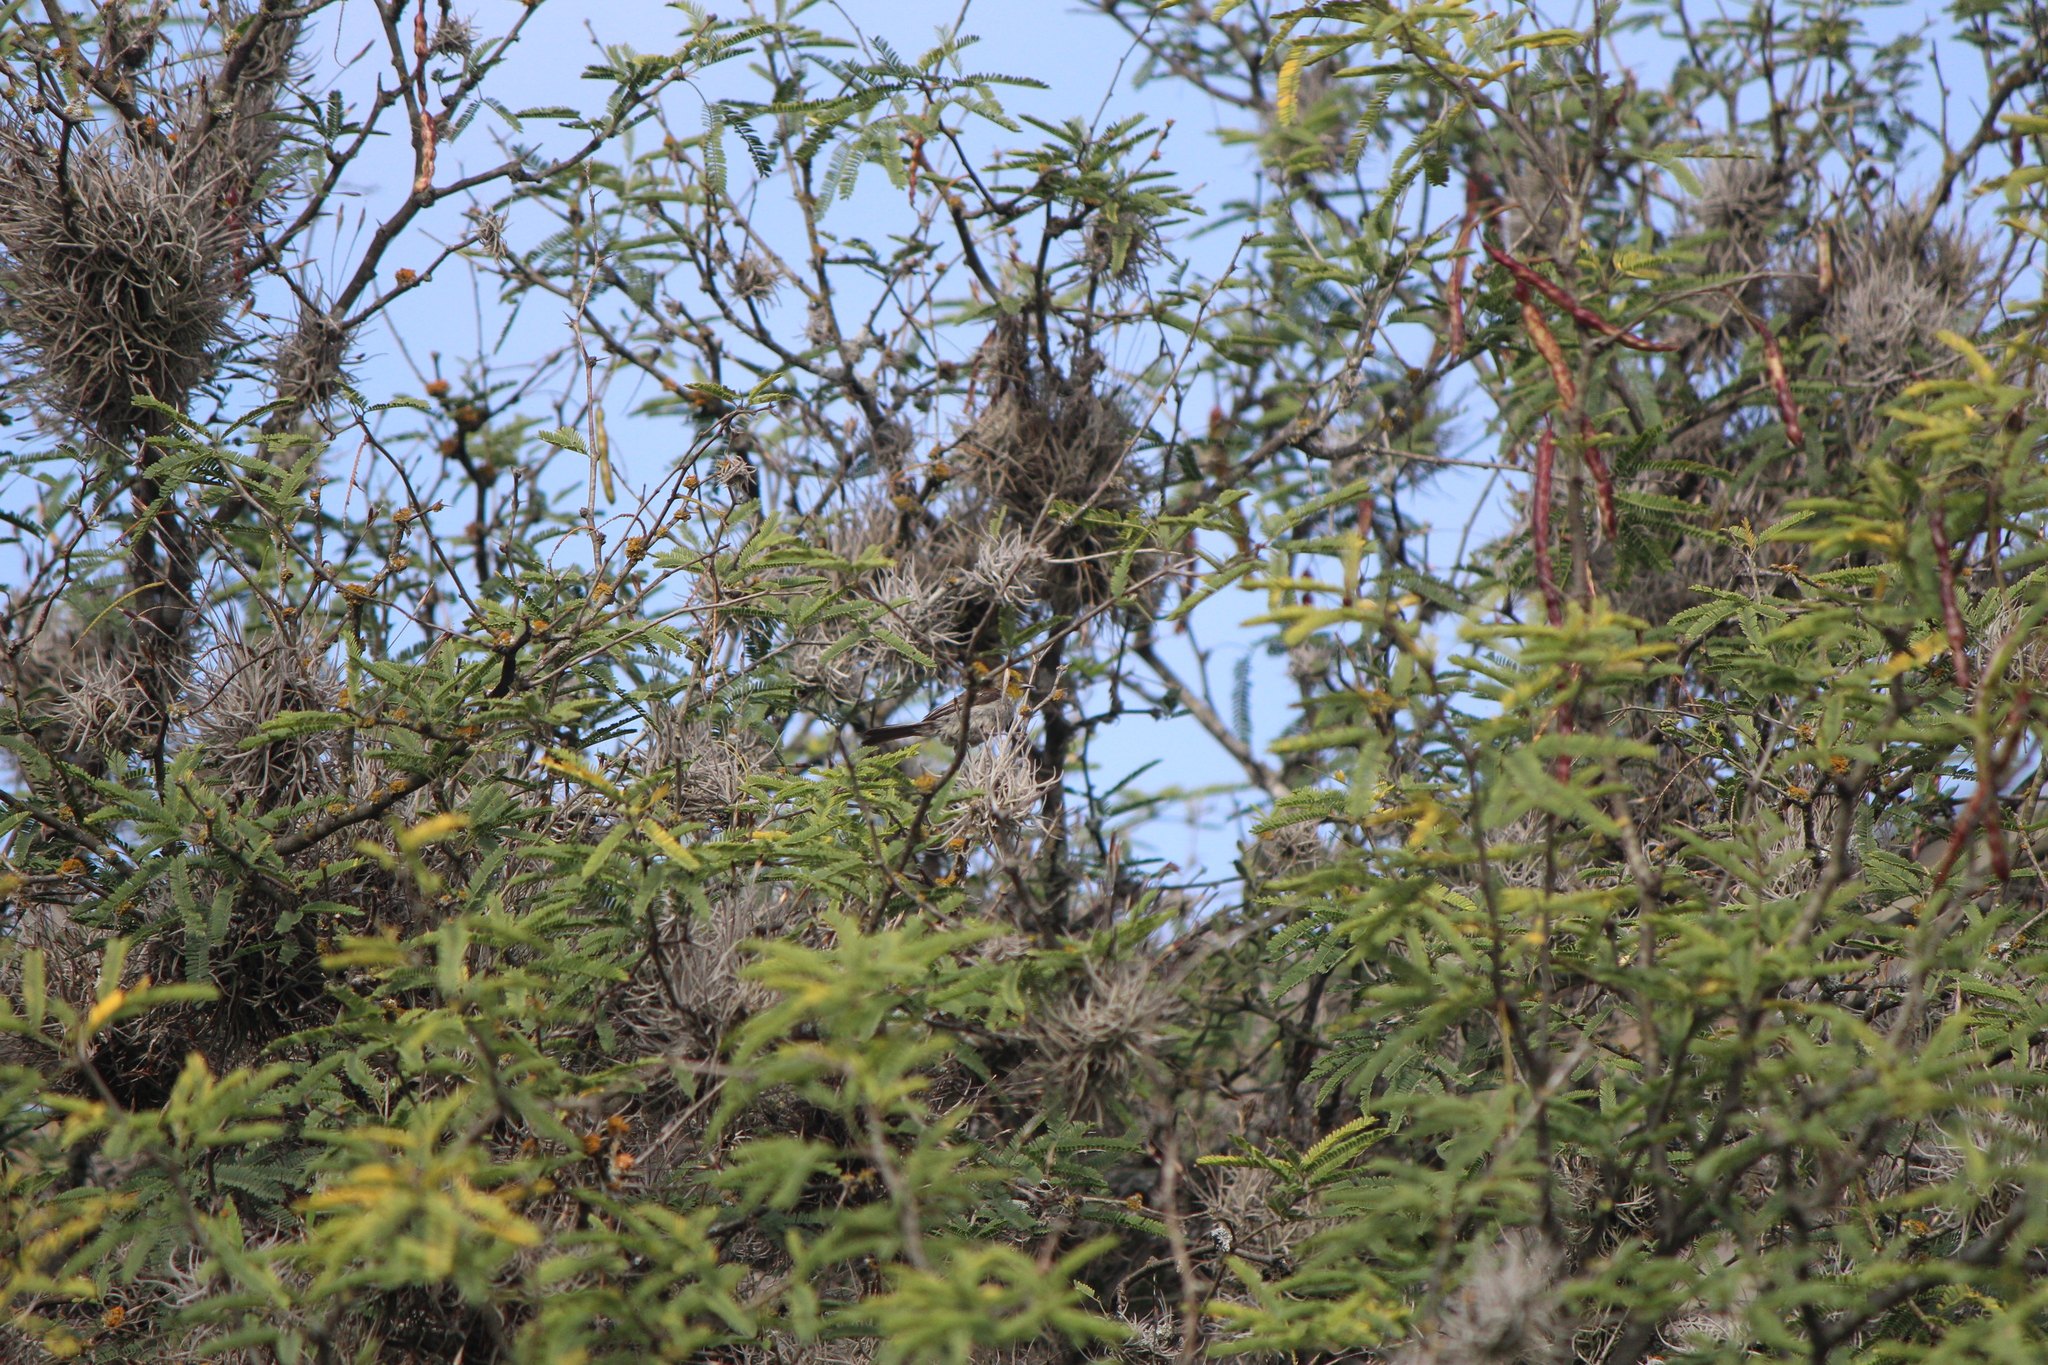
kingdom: Animalia
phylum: Chordata
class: Aves
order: Passeriformes
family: Remizidae
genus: Auriparus
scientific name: Auriparus flaviceps
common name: Verdin
